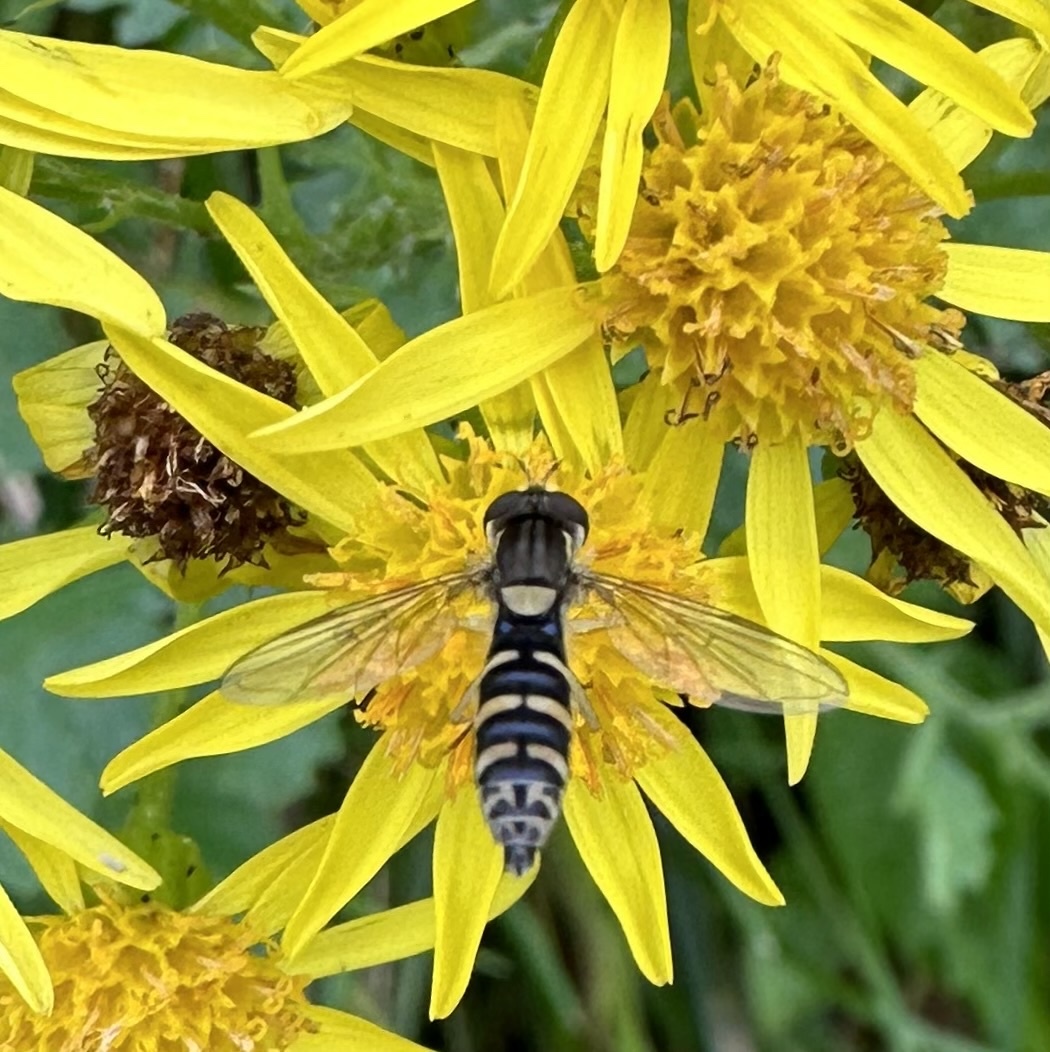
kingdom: Animalia
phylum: Arthropoda
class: Insecta
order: Diptera
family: Syrphidae
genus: Sphaerophoria
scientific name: Sphaerophoria
